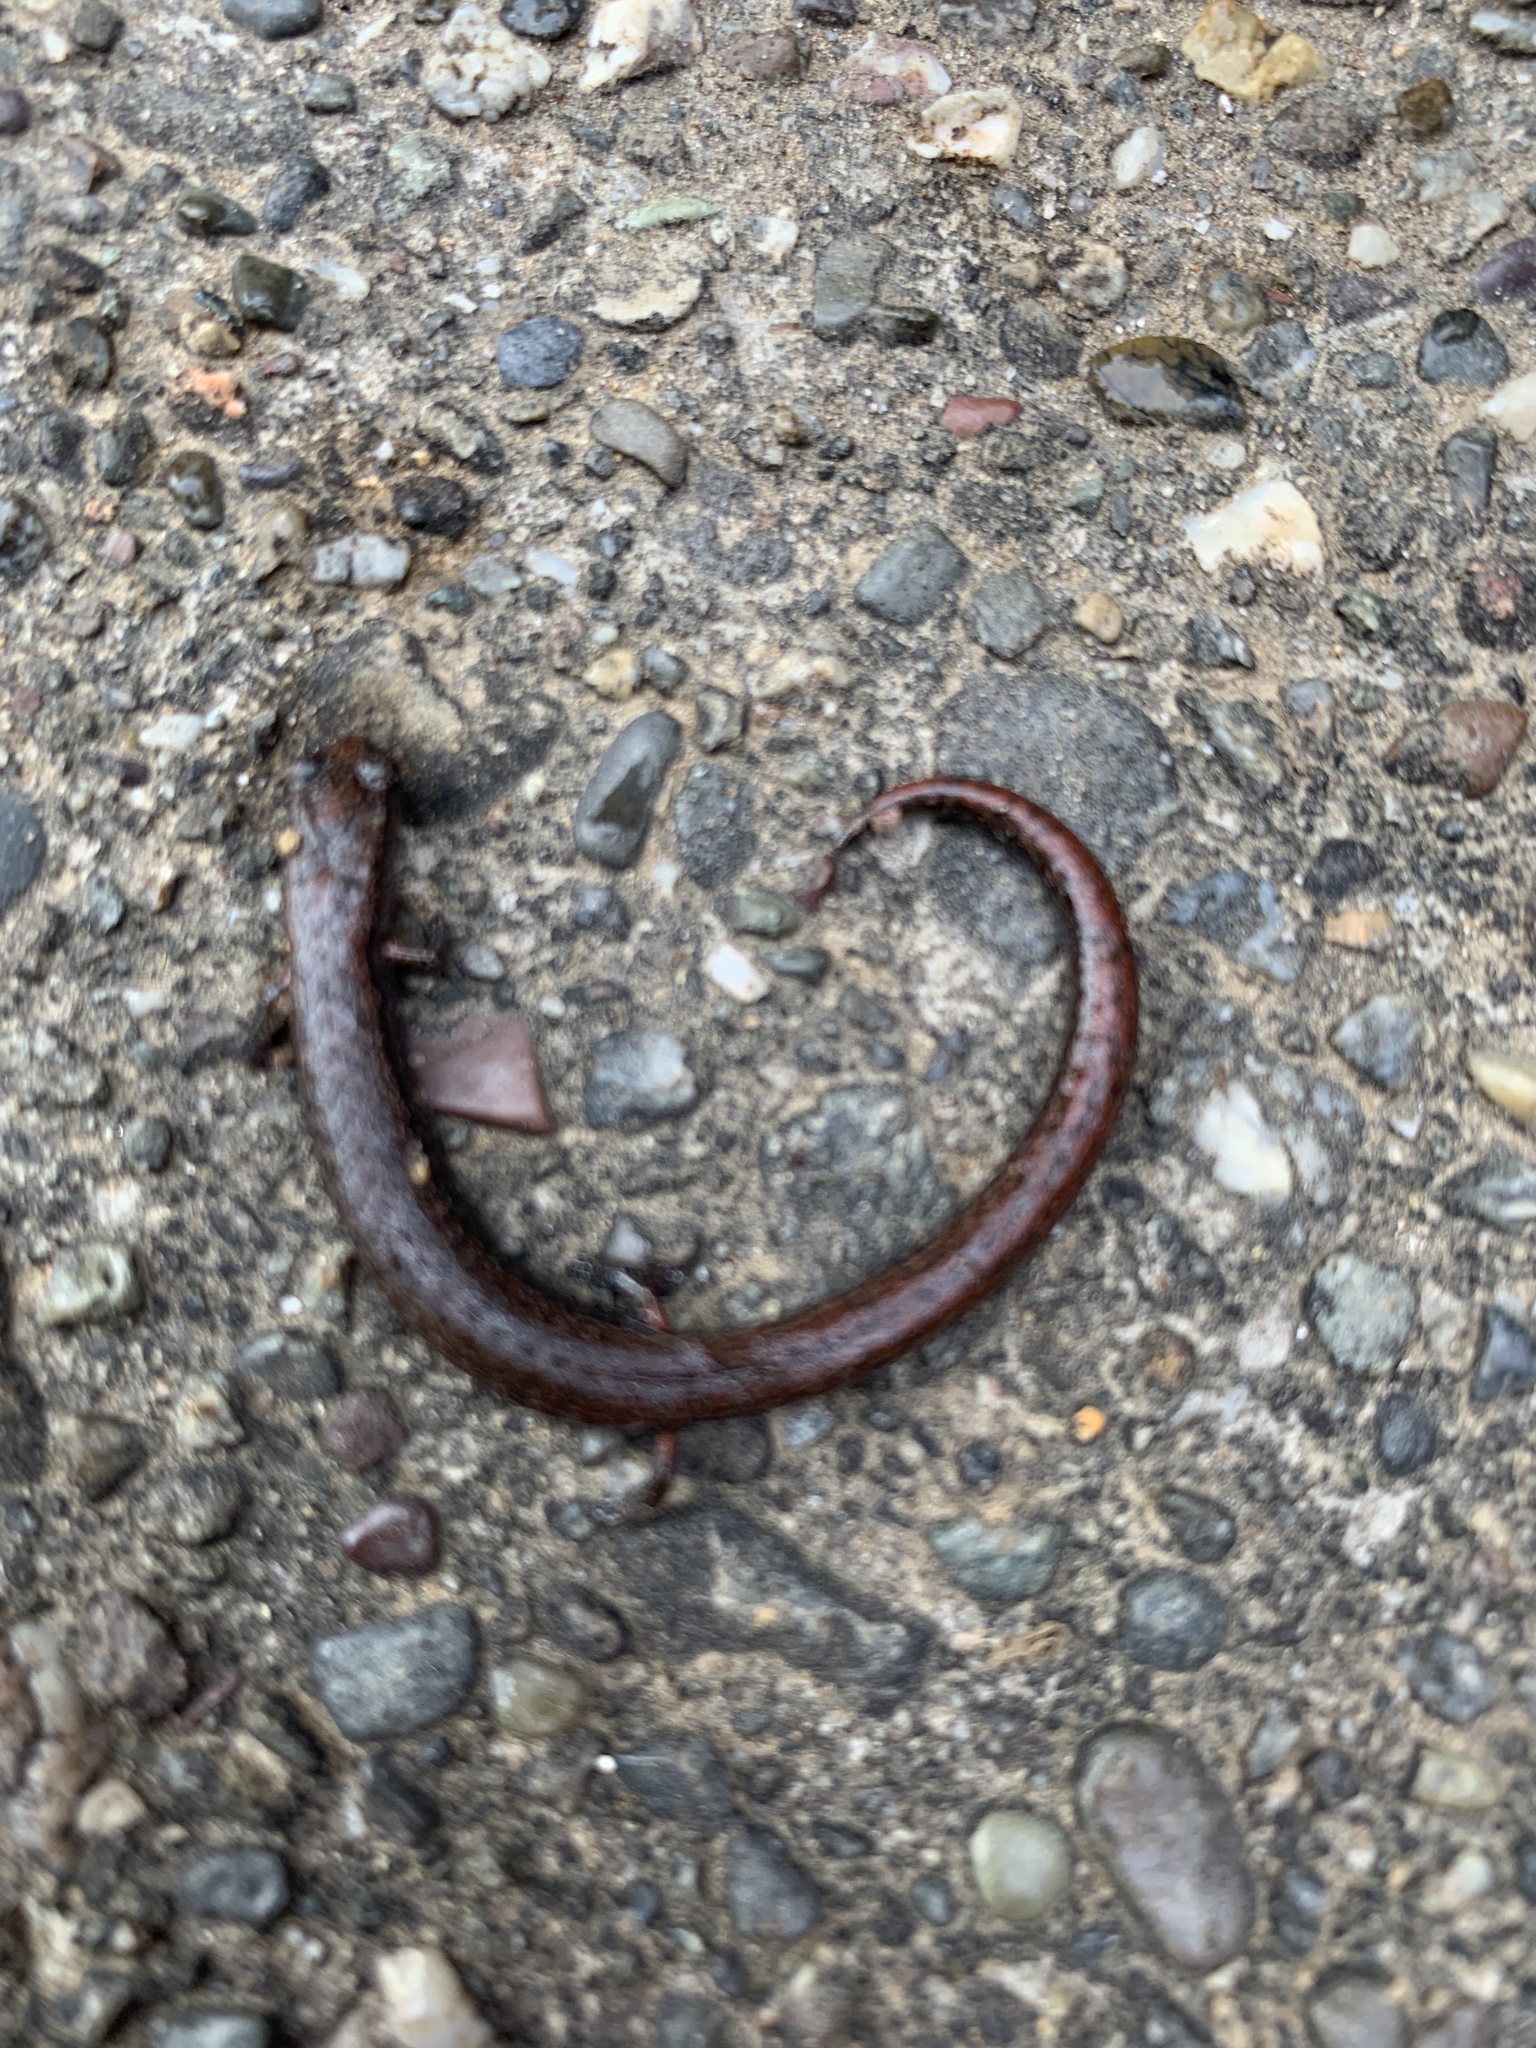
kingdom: Animalia
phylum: Chordata
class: Amphibia
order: Caudata
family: Plethodontidae
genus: Batrachoseps
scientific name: Batrachoseps attenuatus
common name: California slender salamander
